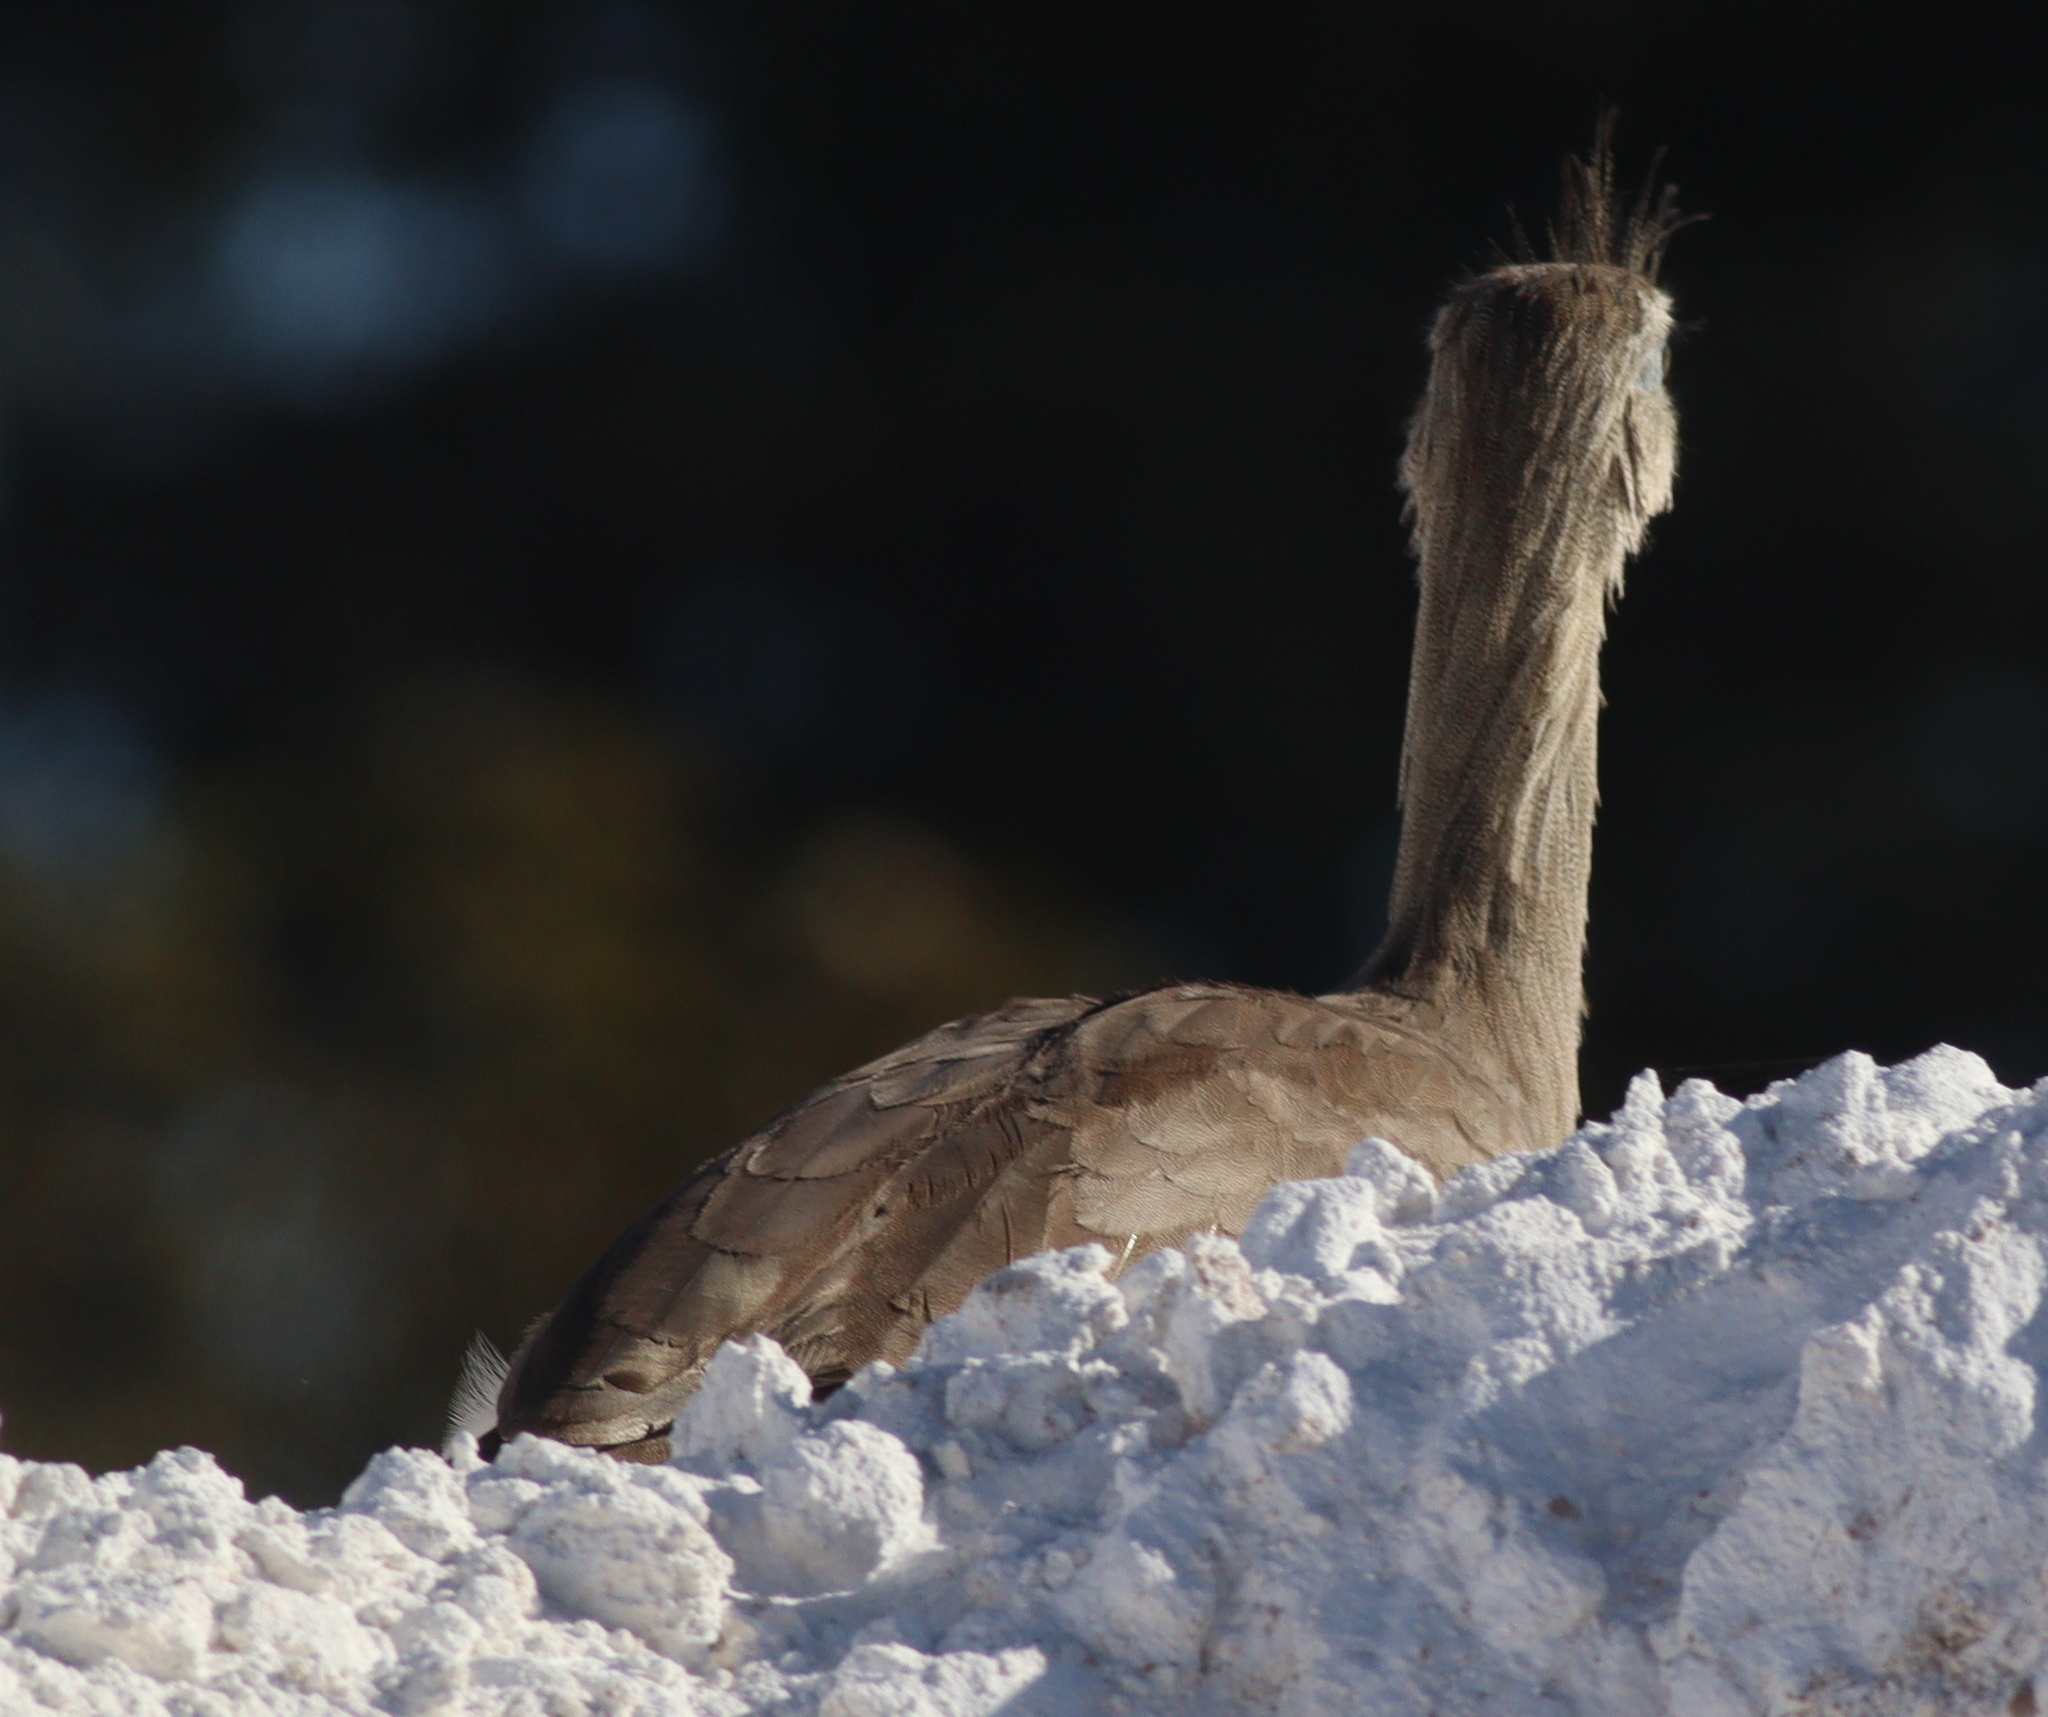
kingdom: Animalia
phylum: Chordata
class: Aves
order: Cariamiformes
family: Cariamidae
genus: Cariama
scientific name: Cariama cristata
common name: Red-legged seriema
